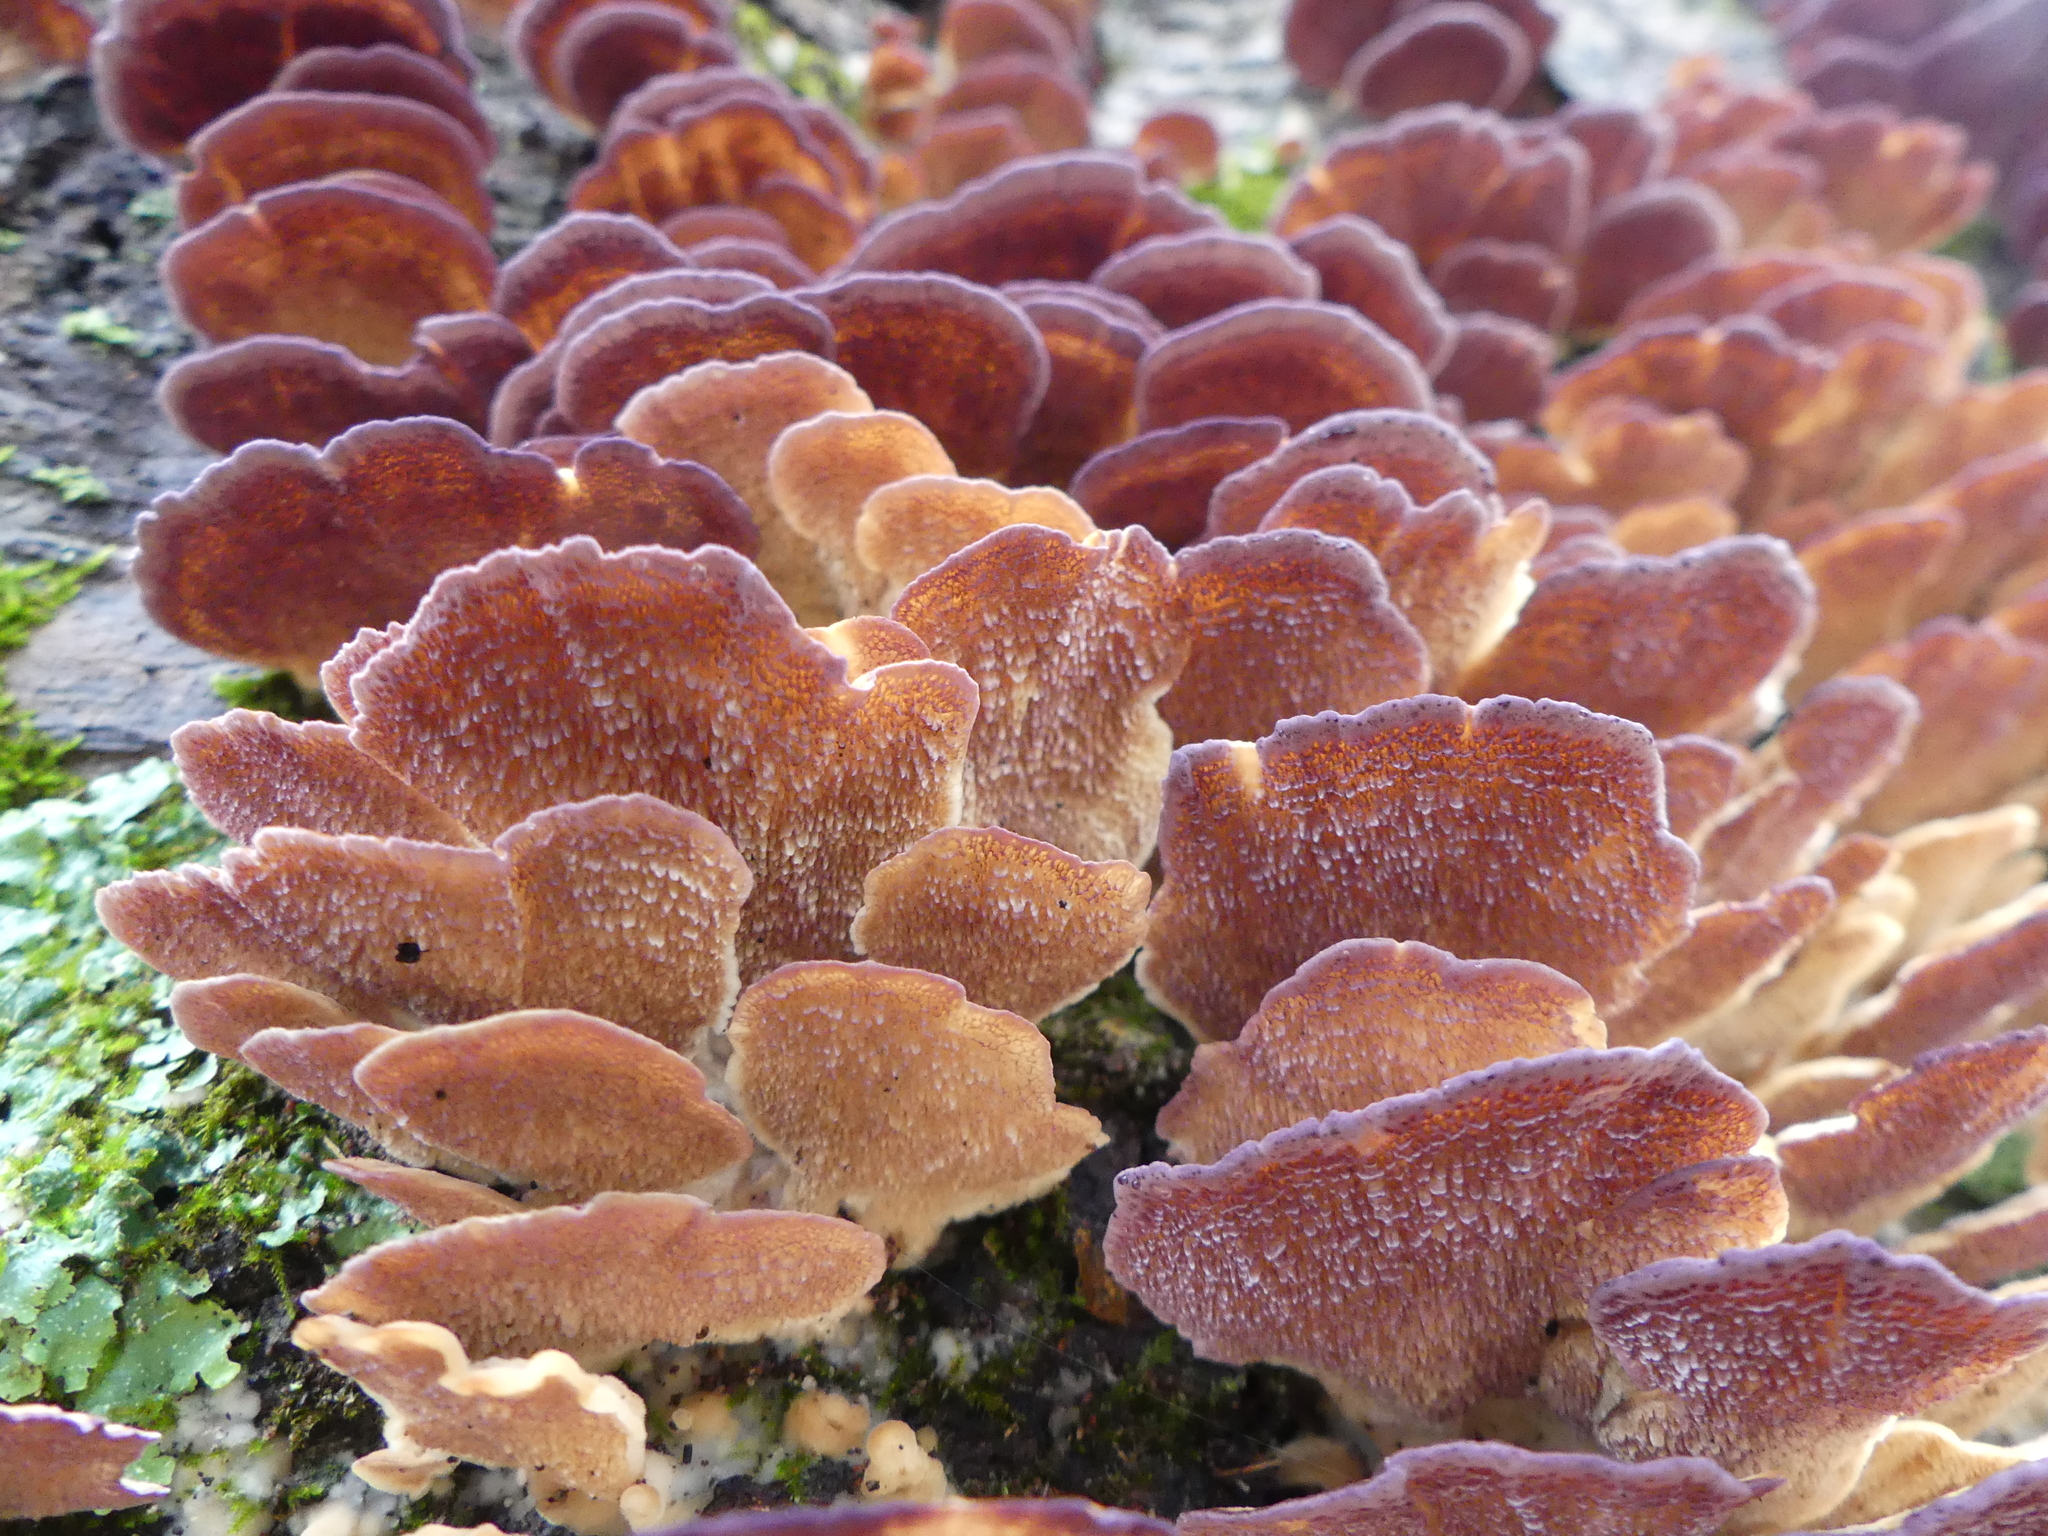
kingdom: Fungi
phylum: Basidiomycota
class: Agaricomycetes
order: Hymenochaetales
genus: Trichaptum
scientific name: Trichaptum biforme
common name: Violet-toothed polypore
